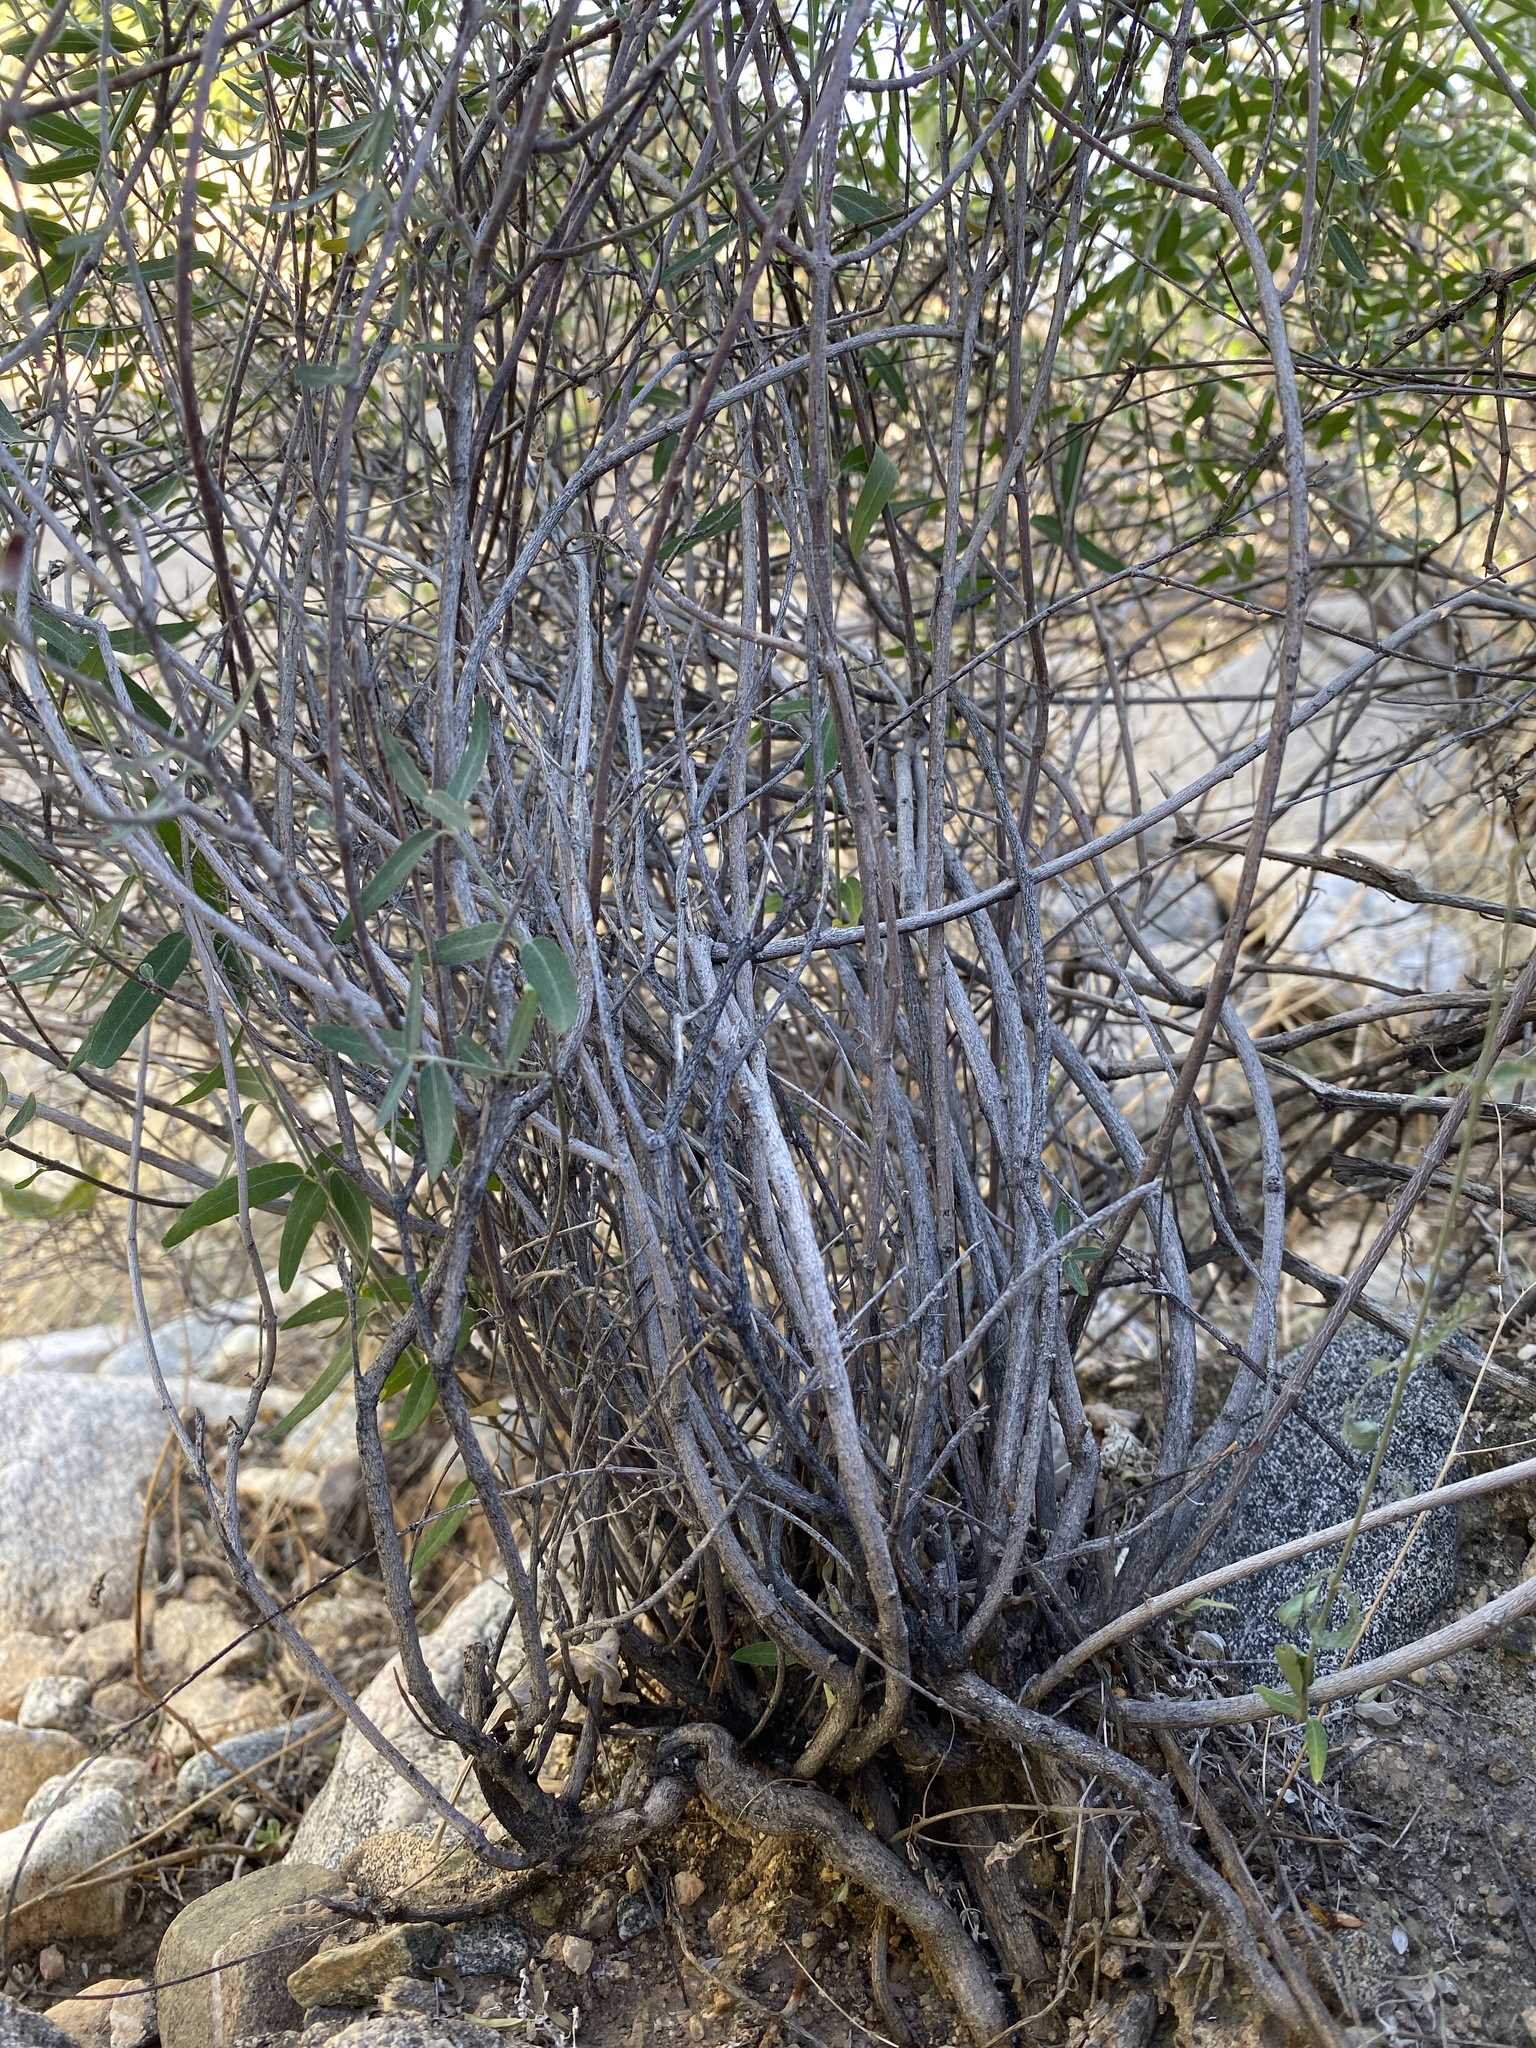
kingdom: Plantae
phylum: Tracheophyta
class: Magnoliopsida
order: Malpighiales
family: Malpighiaceae
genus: Cottsia
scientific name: Cottsia gracilis
